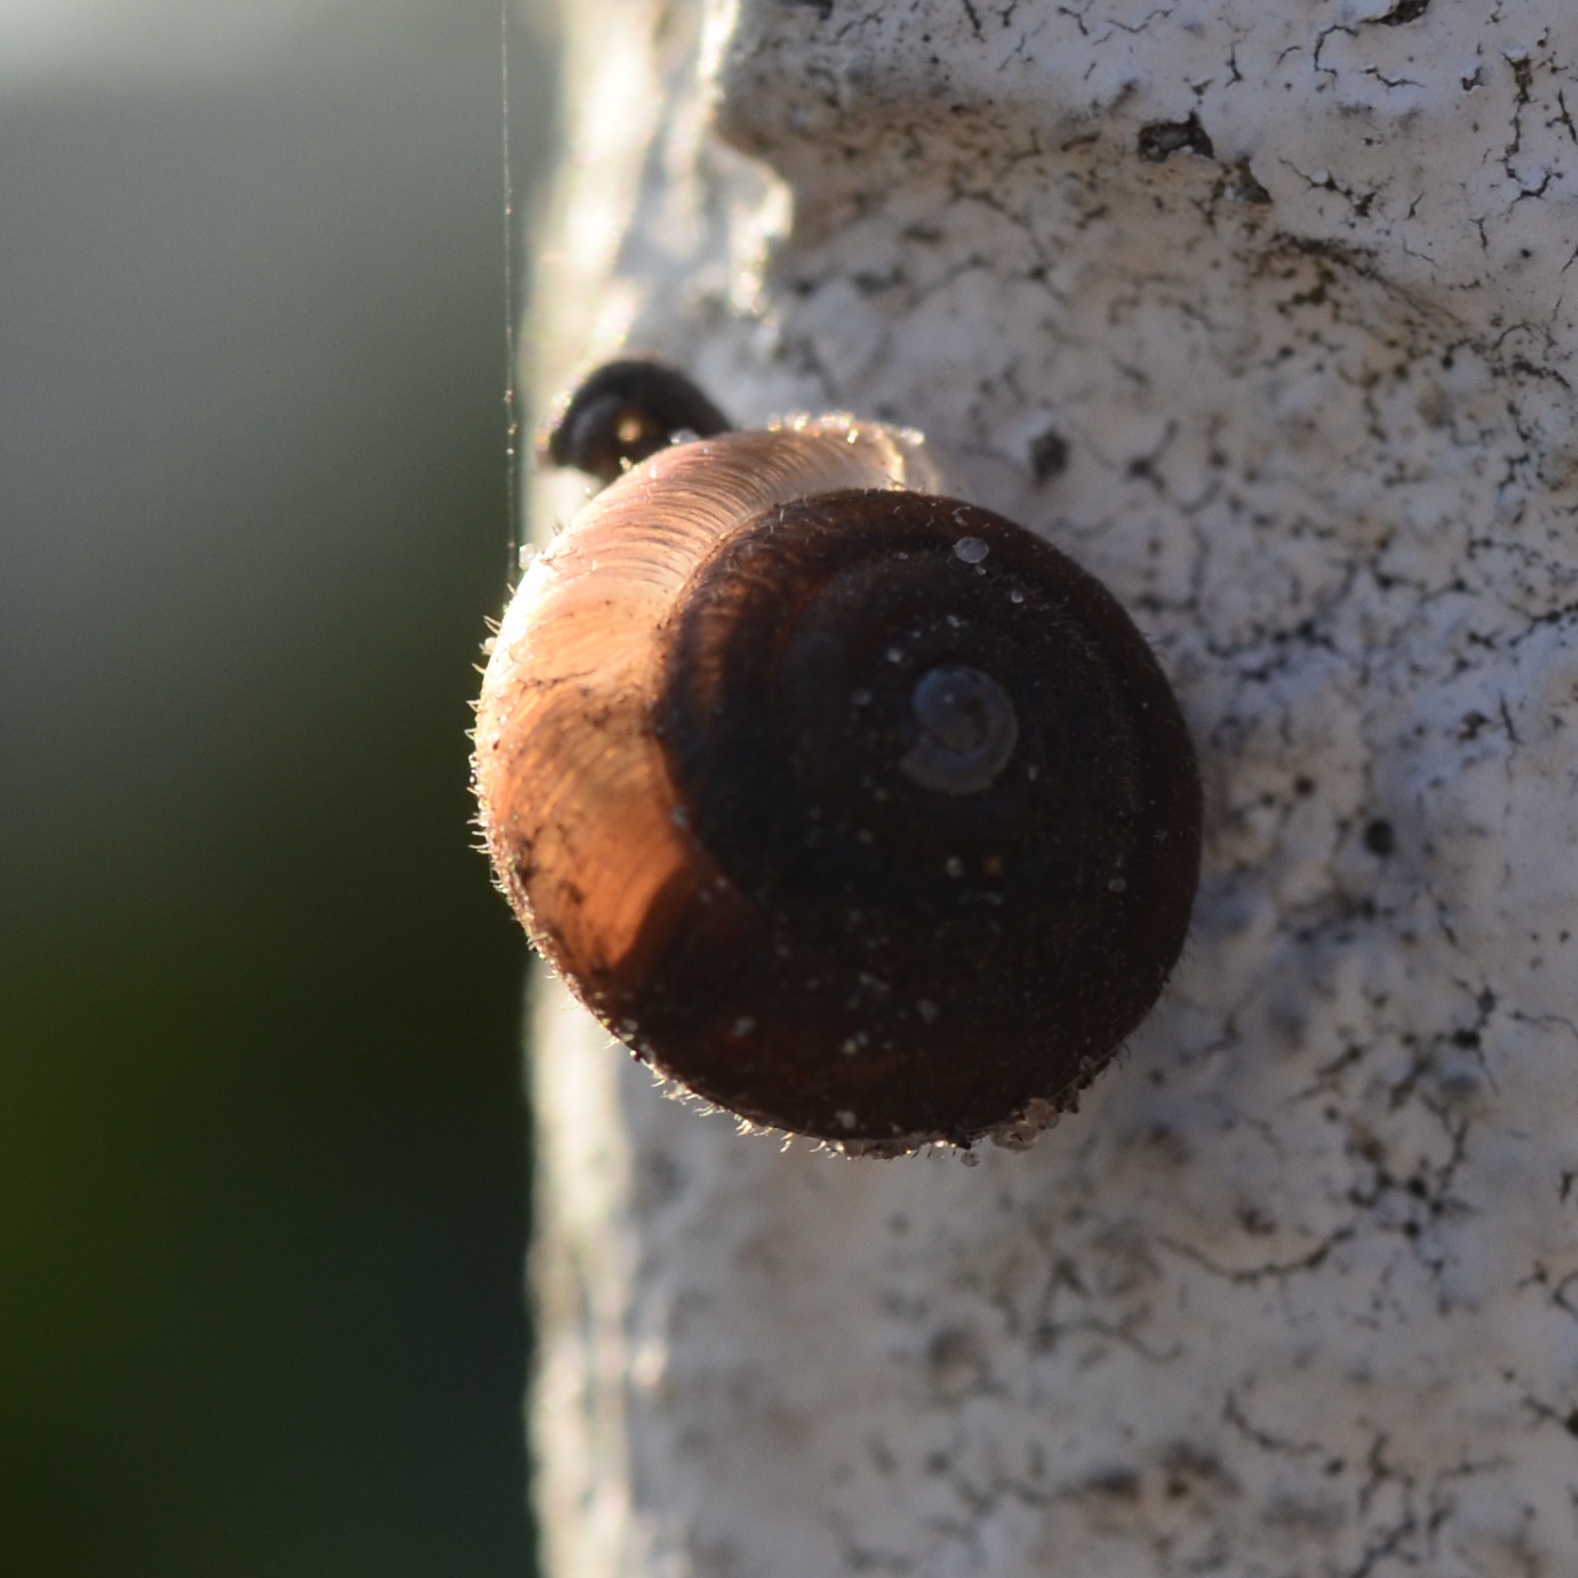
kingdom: Animalia
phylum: Mollusca
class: Gastropoda
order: Stylommatophora
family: Hygromiidae
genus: Trochulus
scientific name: Trochulus hispidus
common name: Hairy snail
